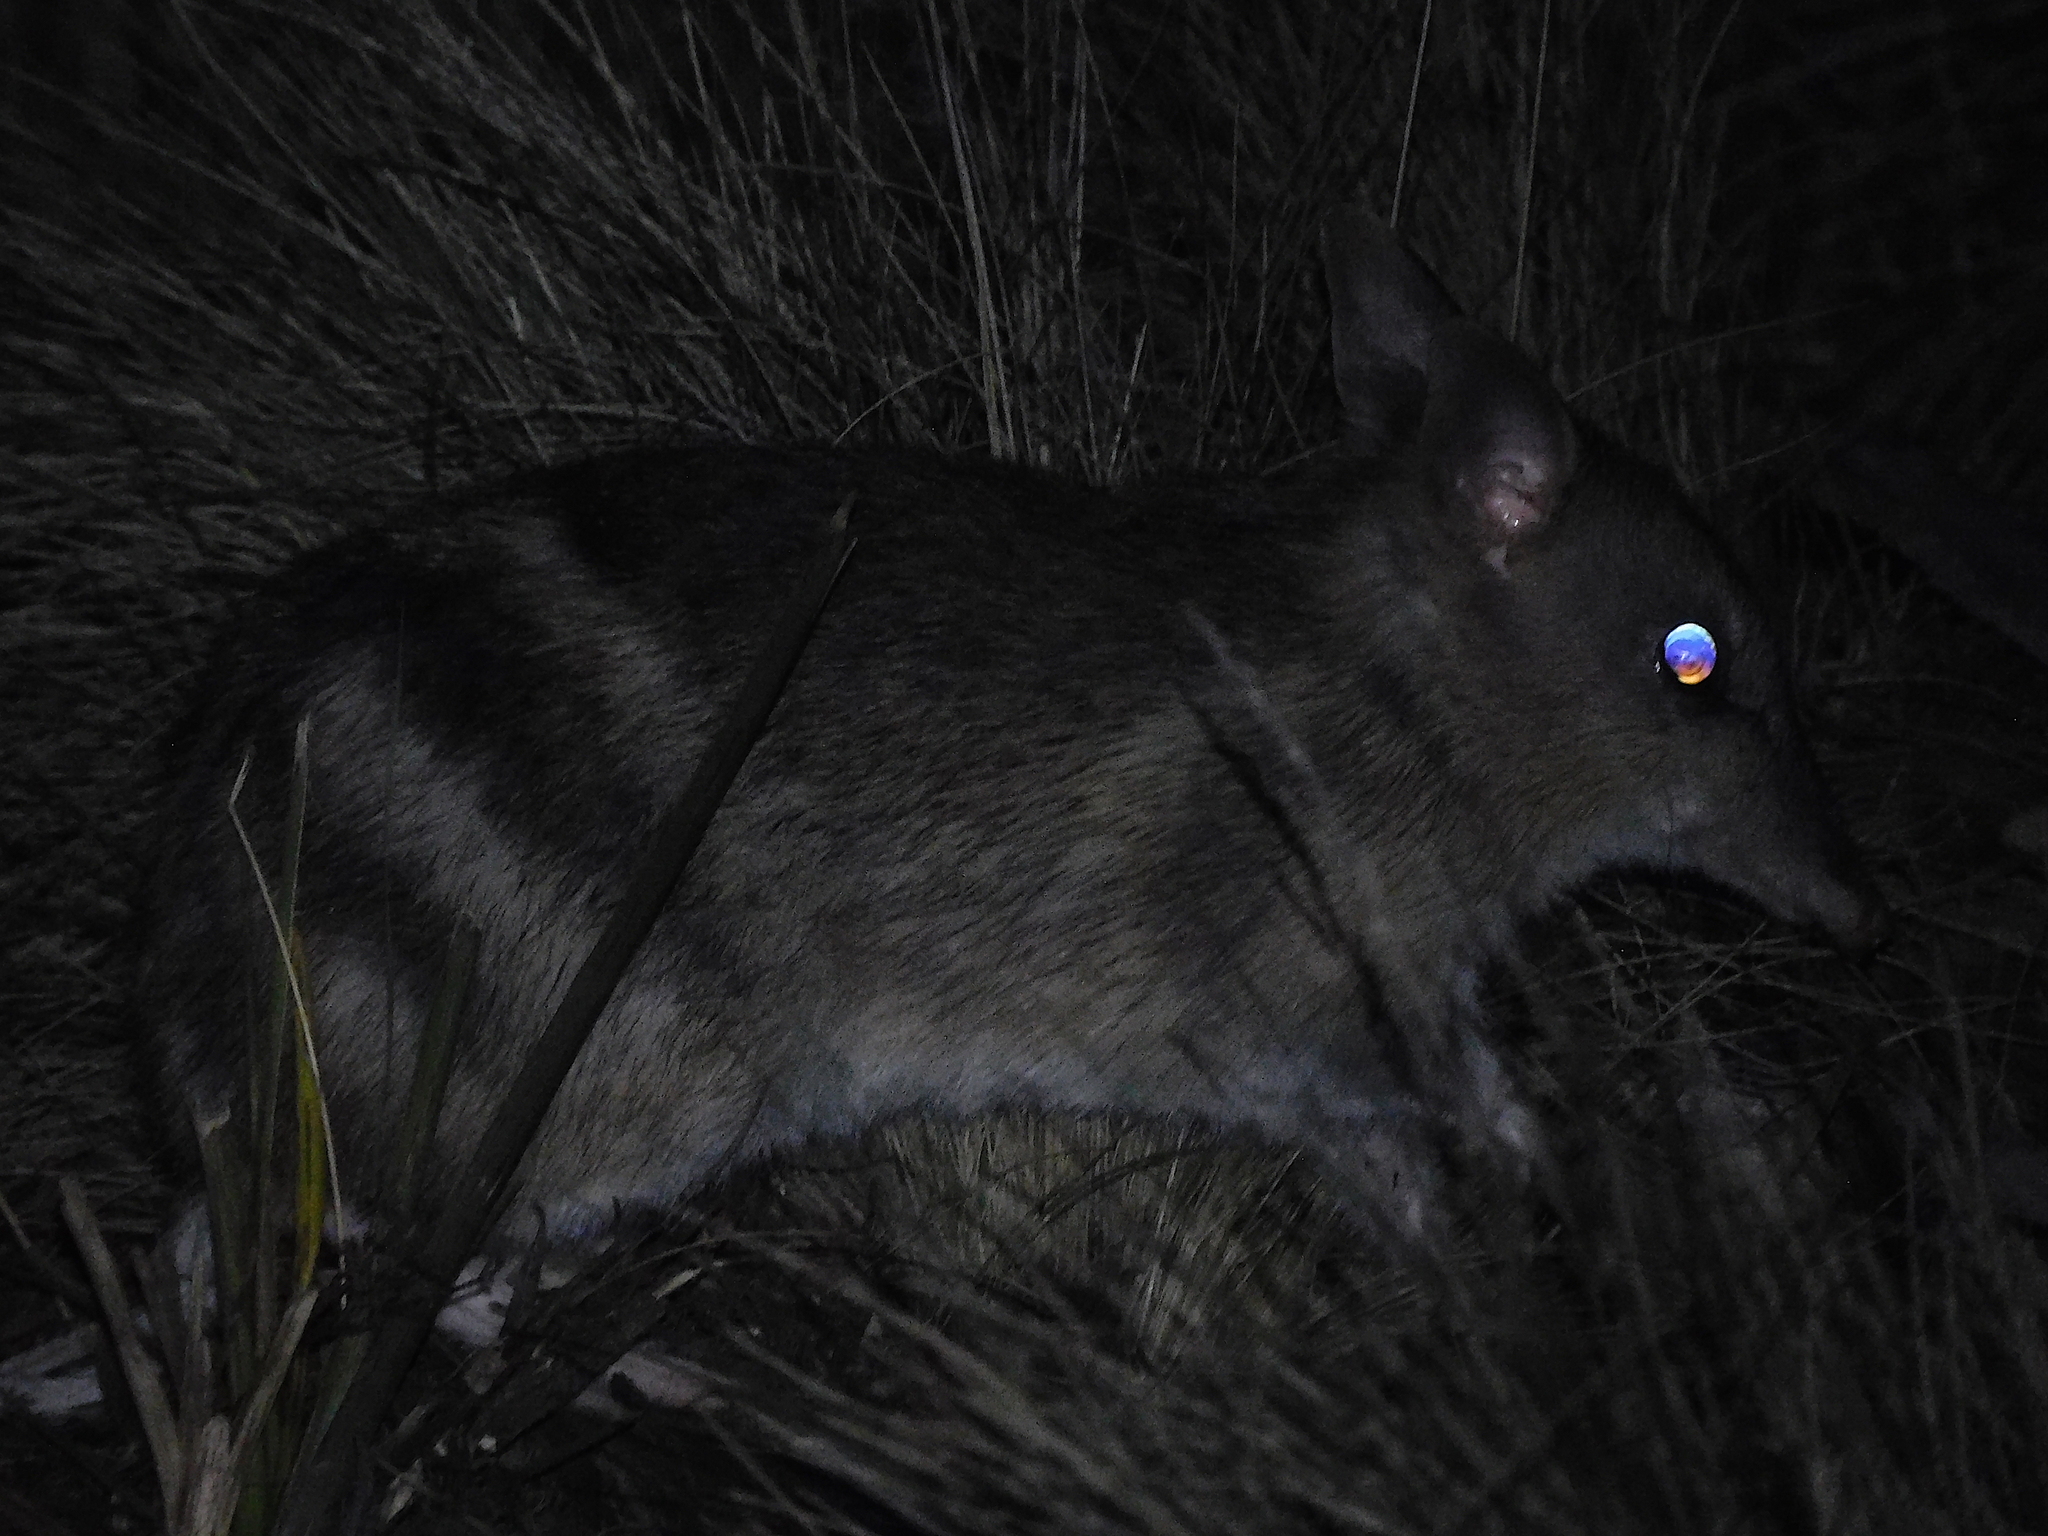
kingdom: Animalia
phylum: Chordata
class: Mammalia
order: Peramelemorphia
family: Peramelidae
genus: Perameles
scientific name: Perameles gunnii
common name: Eastern barred bandicoot
